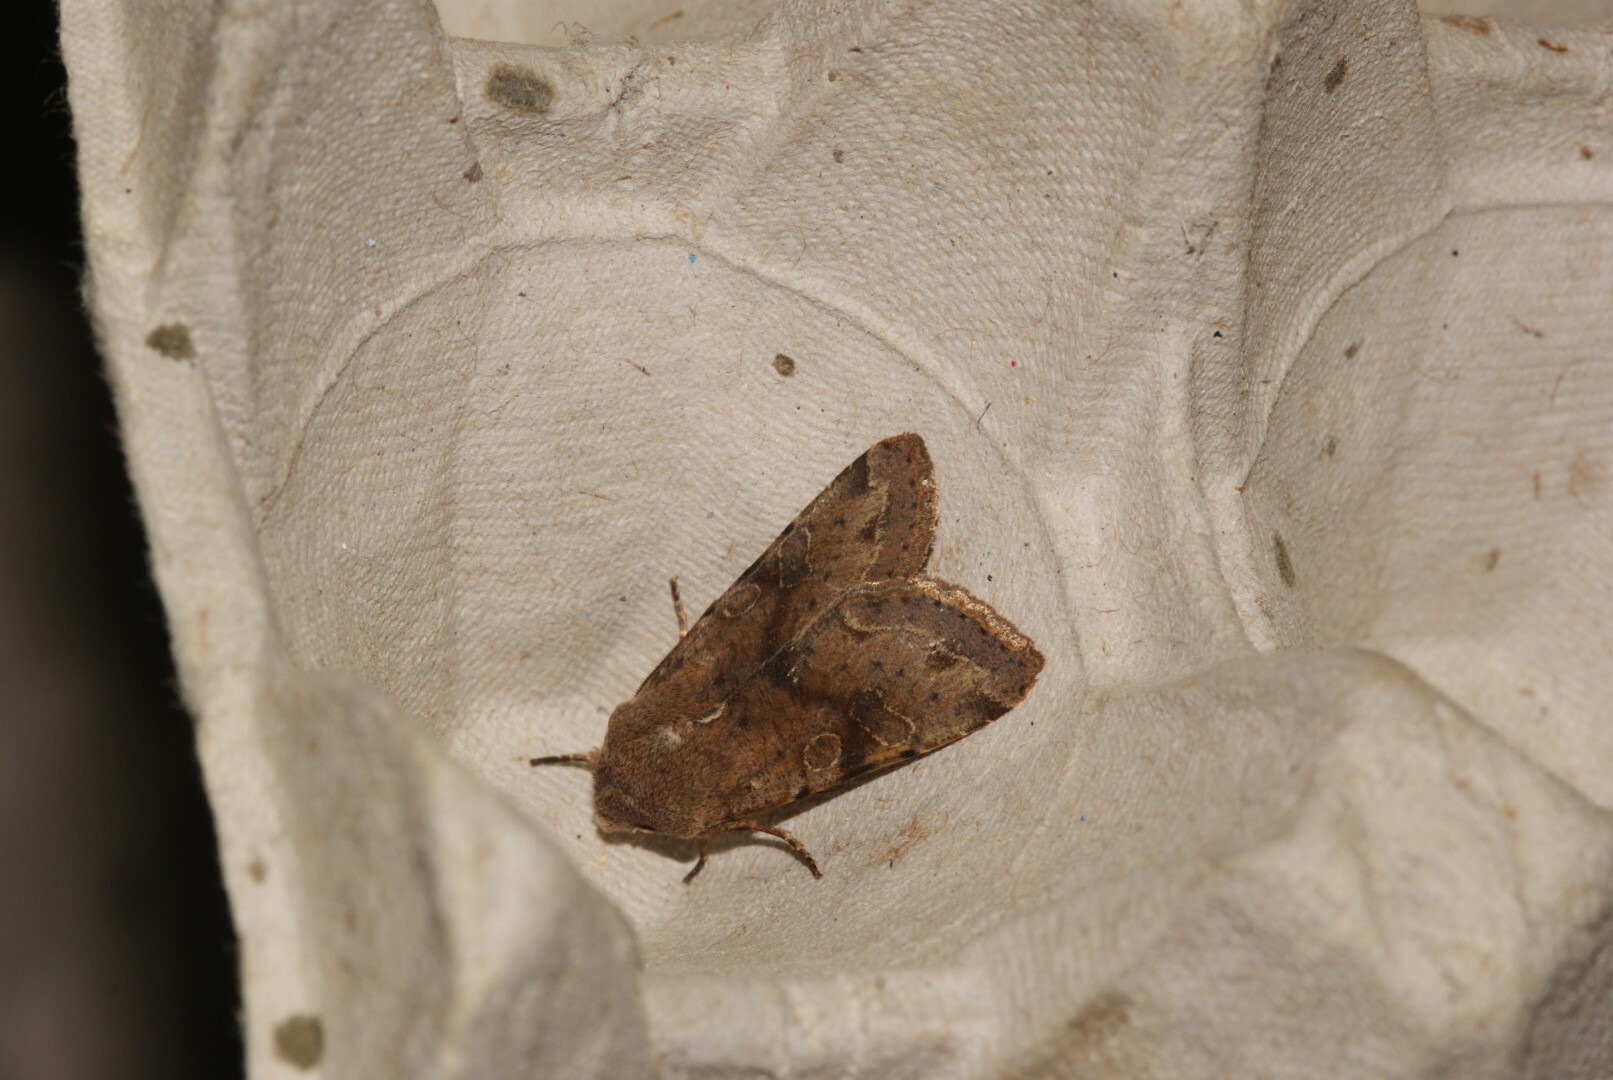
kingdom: Animalia
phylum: Arthropoda
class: Insecta
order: Lepidoptera
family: Noctuidae
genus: Orthosia
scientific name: Orthosia incerta
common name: Clouded drab
